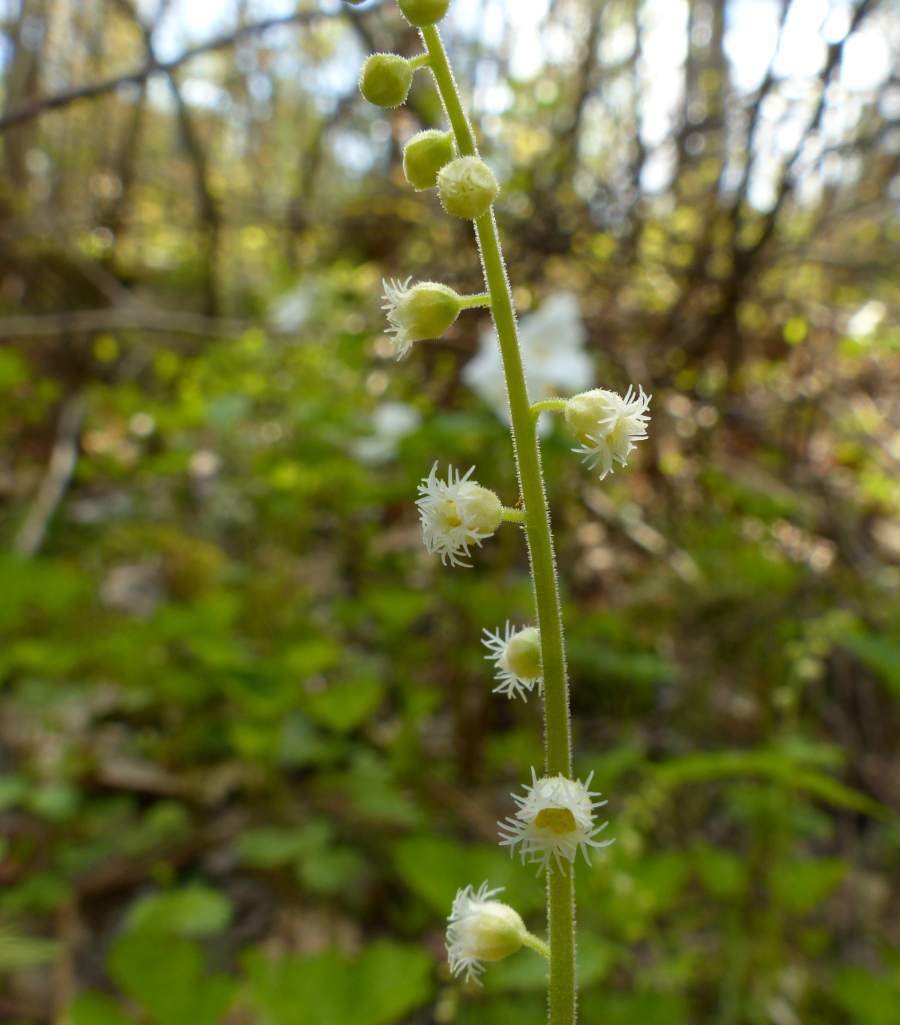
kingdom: Plantae
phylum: Tracheophyta
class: Magnoliopsida
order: Saxifragales
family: Saxifragaceae
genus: Mitella
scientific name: Mitella diphylla
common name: Coolwort
